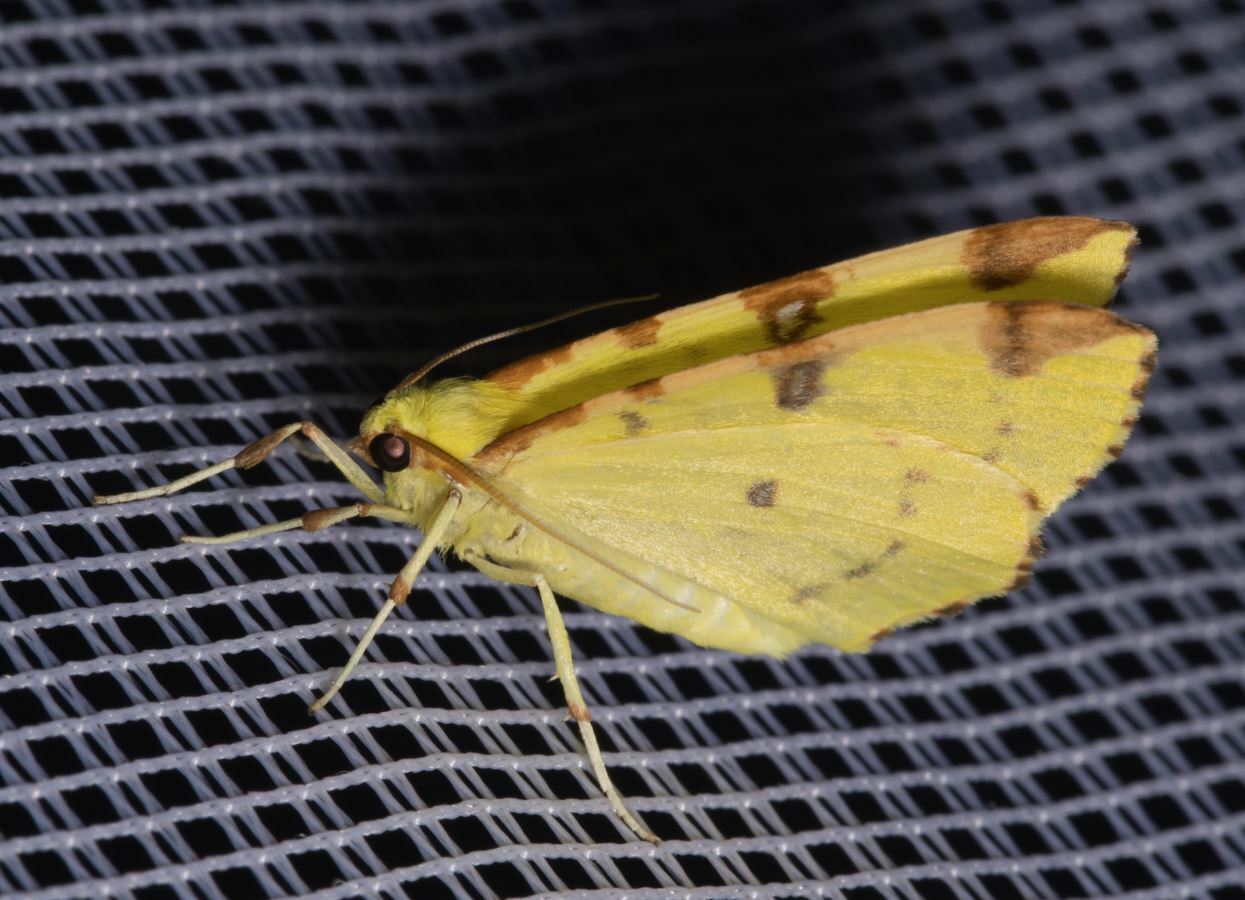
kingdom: Animalia
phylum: Arthropoda
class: Insecta
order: Lepidoptera
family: Geometridae
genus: Opisthograptis
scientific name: Opisthograptis luteolata
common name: Brimstone moth
